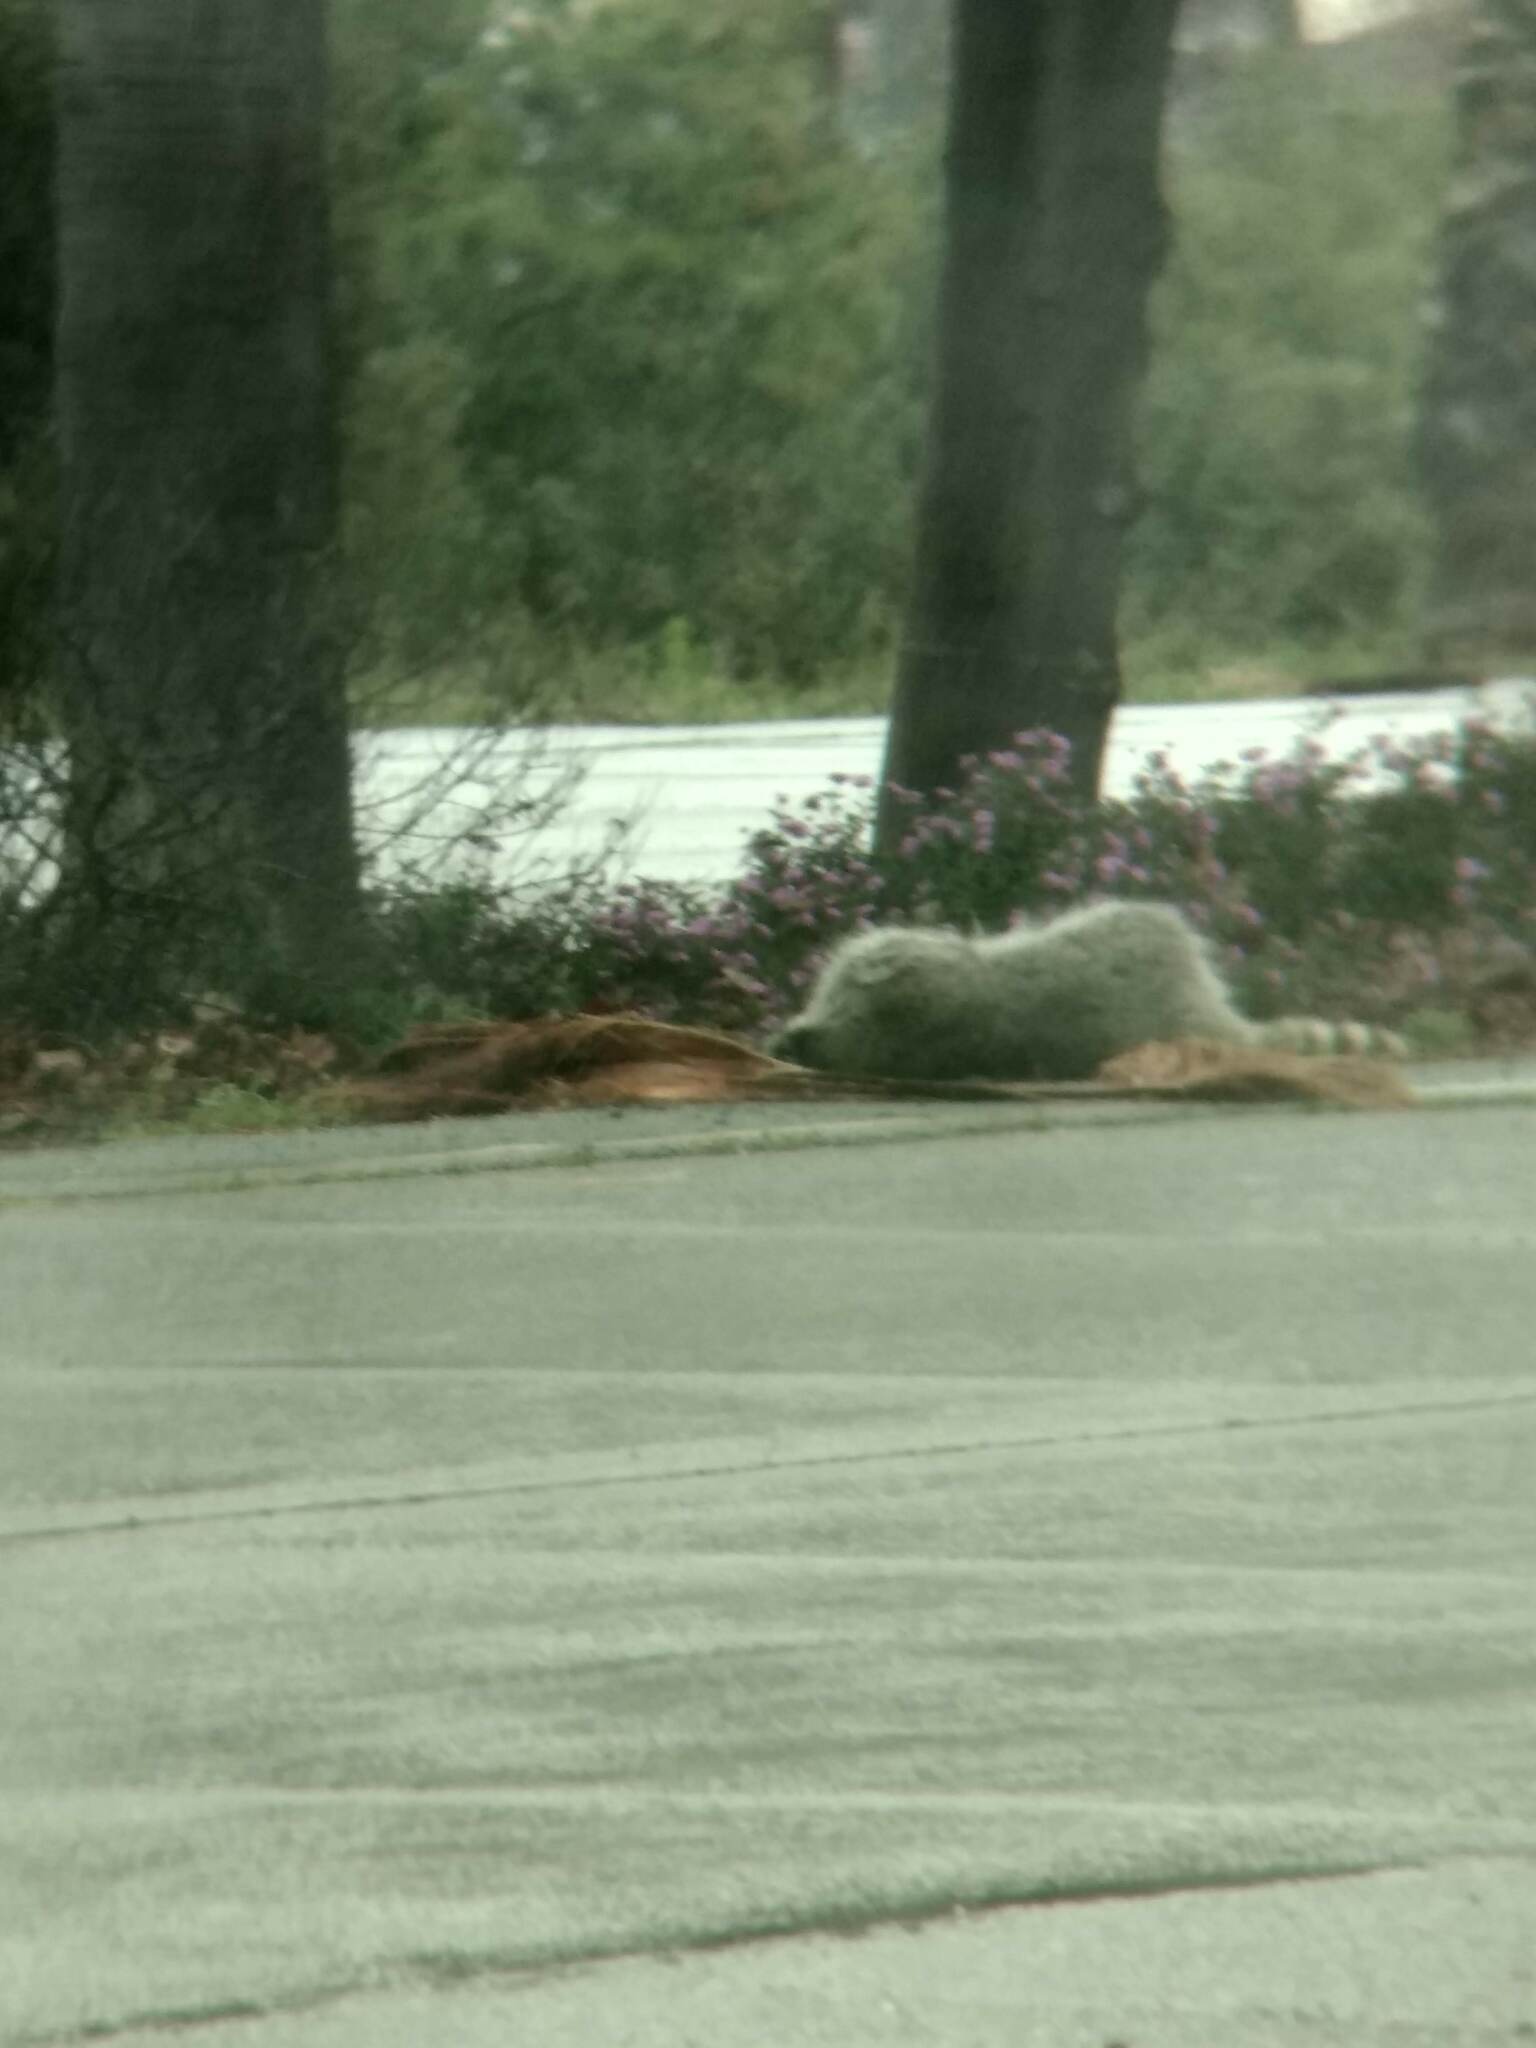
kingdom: Animalia
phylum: Chordata
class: Mammalia
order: Carnivora
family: Procyonidae
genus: Procyon
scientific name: Procyon lotor
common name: Raccoon
